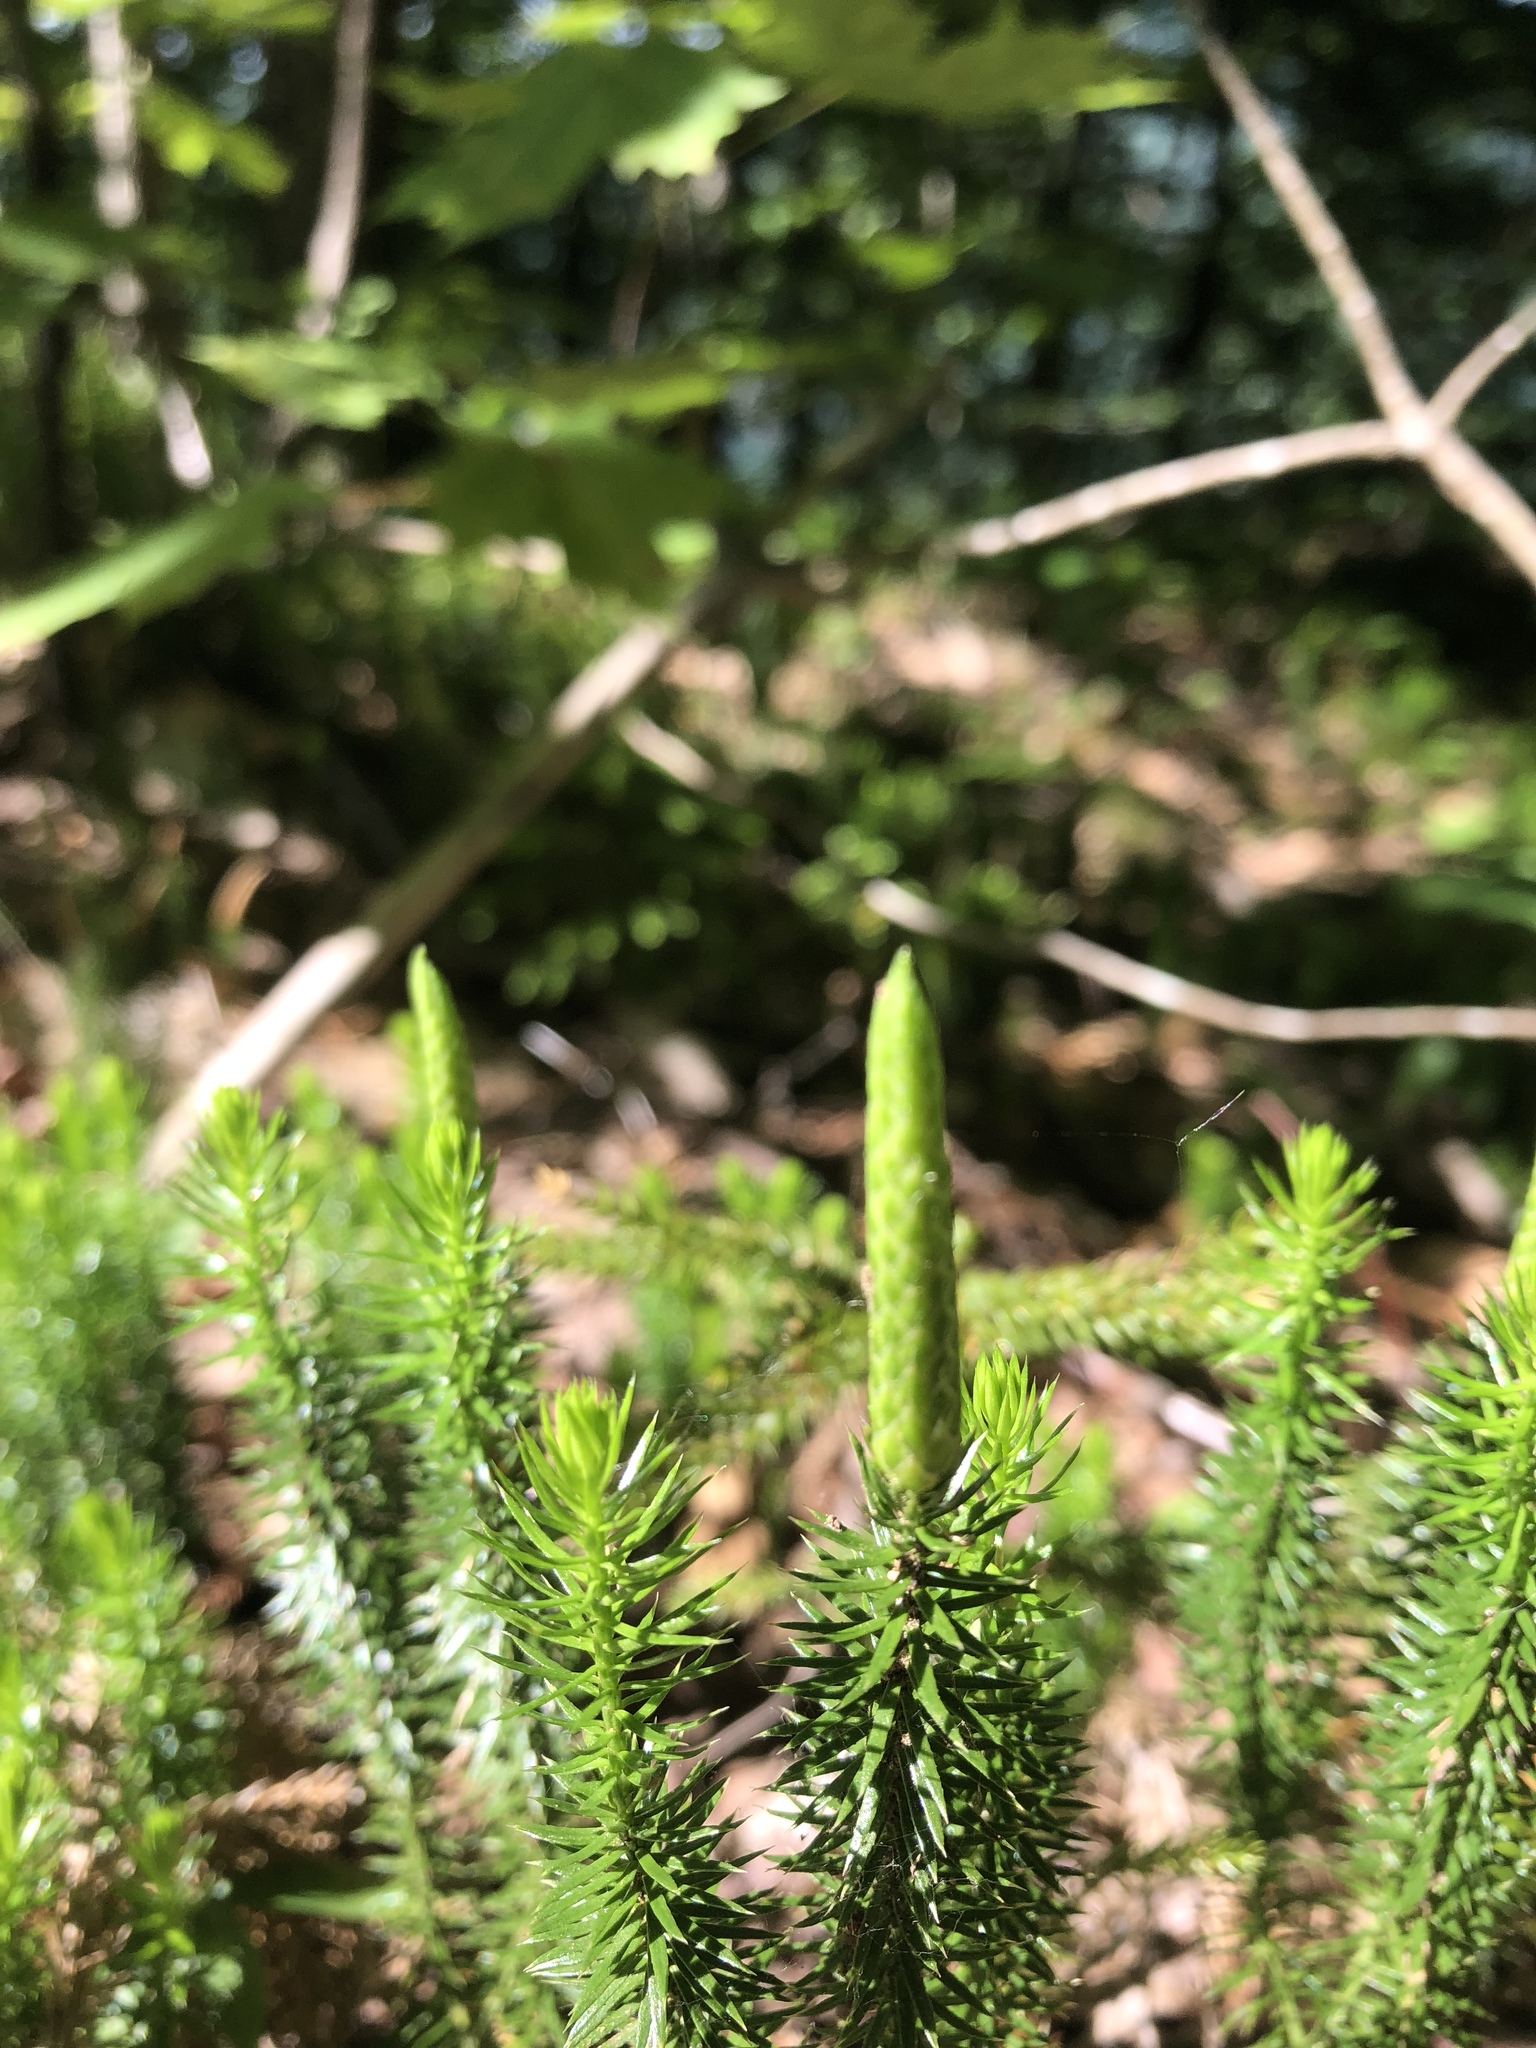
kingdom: Plantae
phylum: Tracheophyta
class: Lycopodiopsida
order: Lycopodiales
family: Lycopodiaceae
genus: Spinulum
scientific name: Spinulum annotinum
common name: Interrupted club-moss
